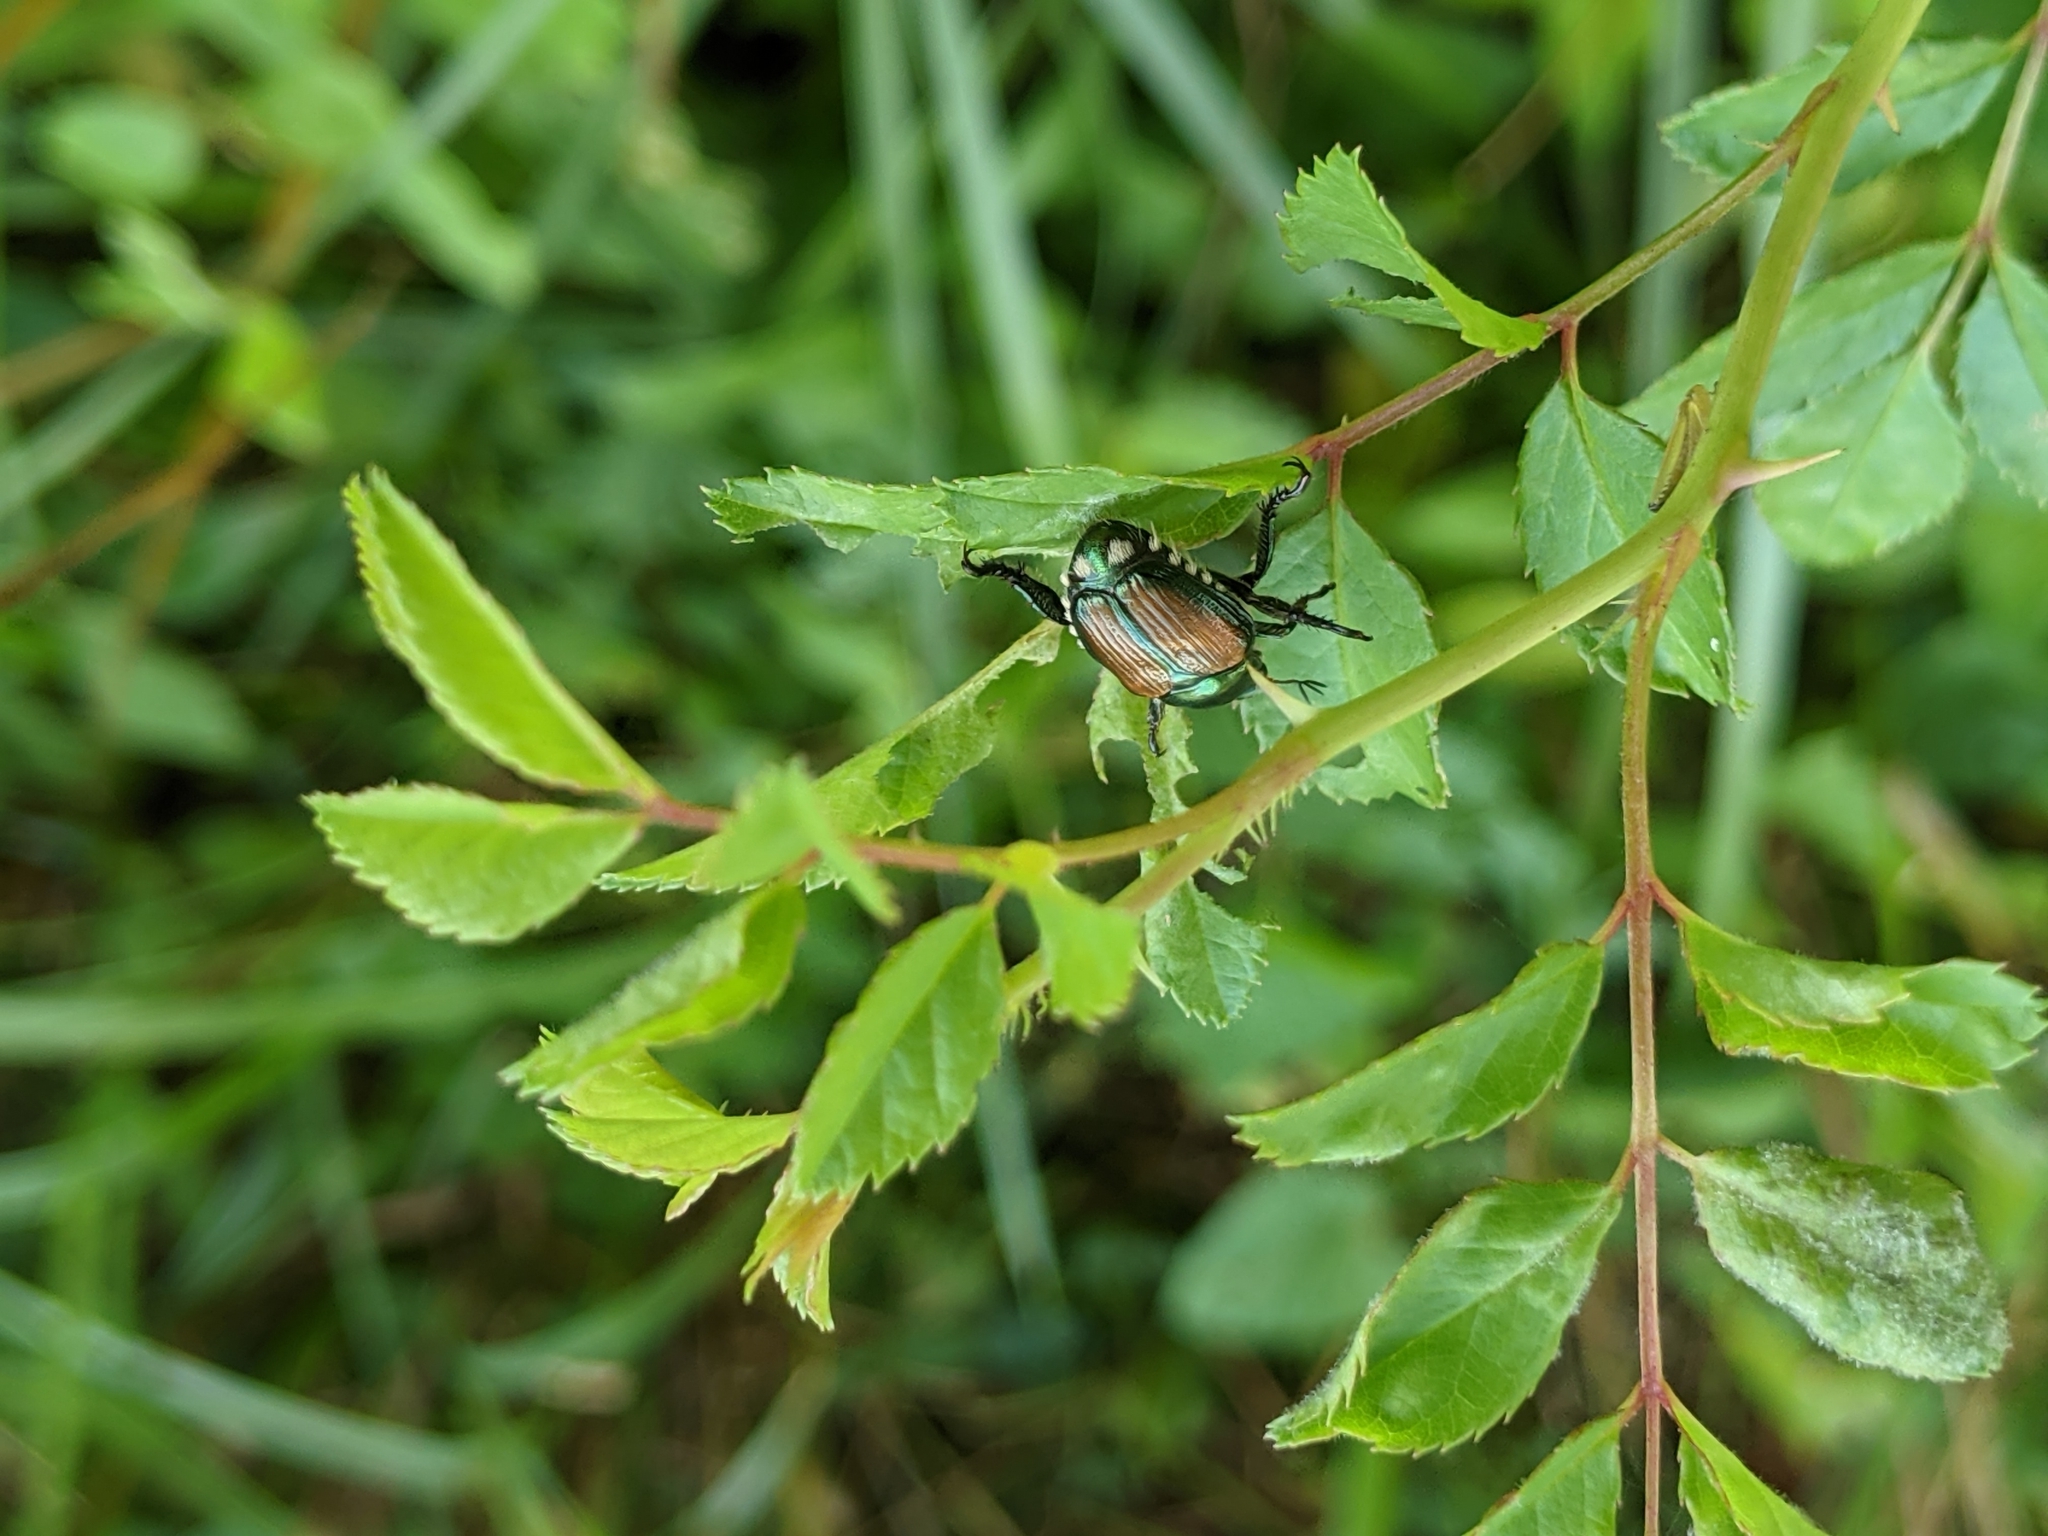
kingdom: Animalia
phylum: Arthropoda
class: Insecta
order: Coleoptera
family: Scarabaeidae
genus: Popillia
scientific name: Popillia japonica
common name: Japanese beetle
